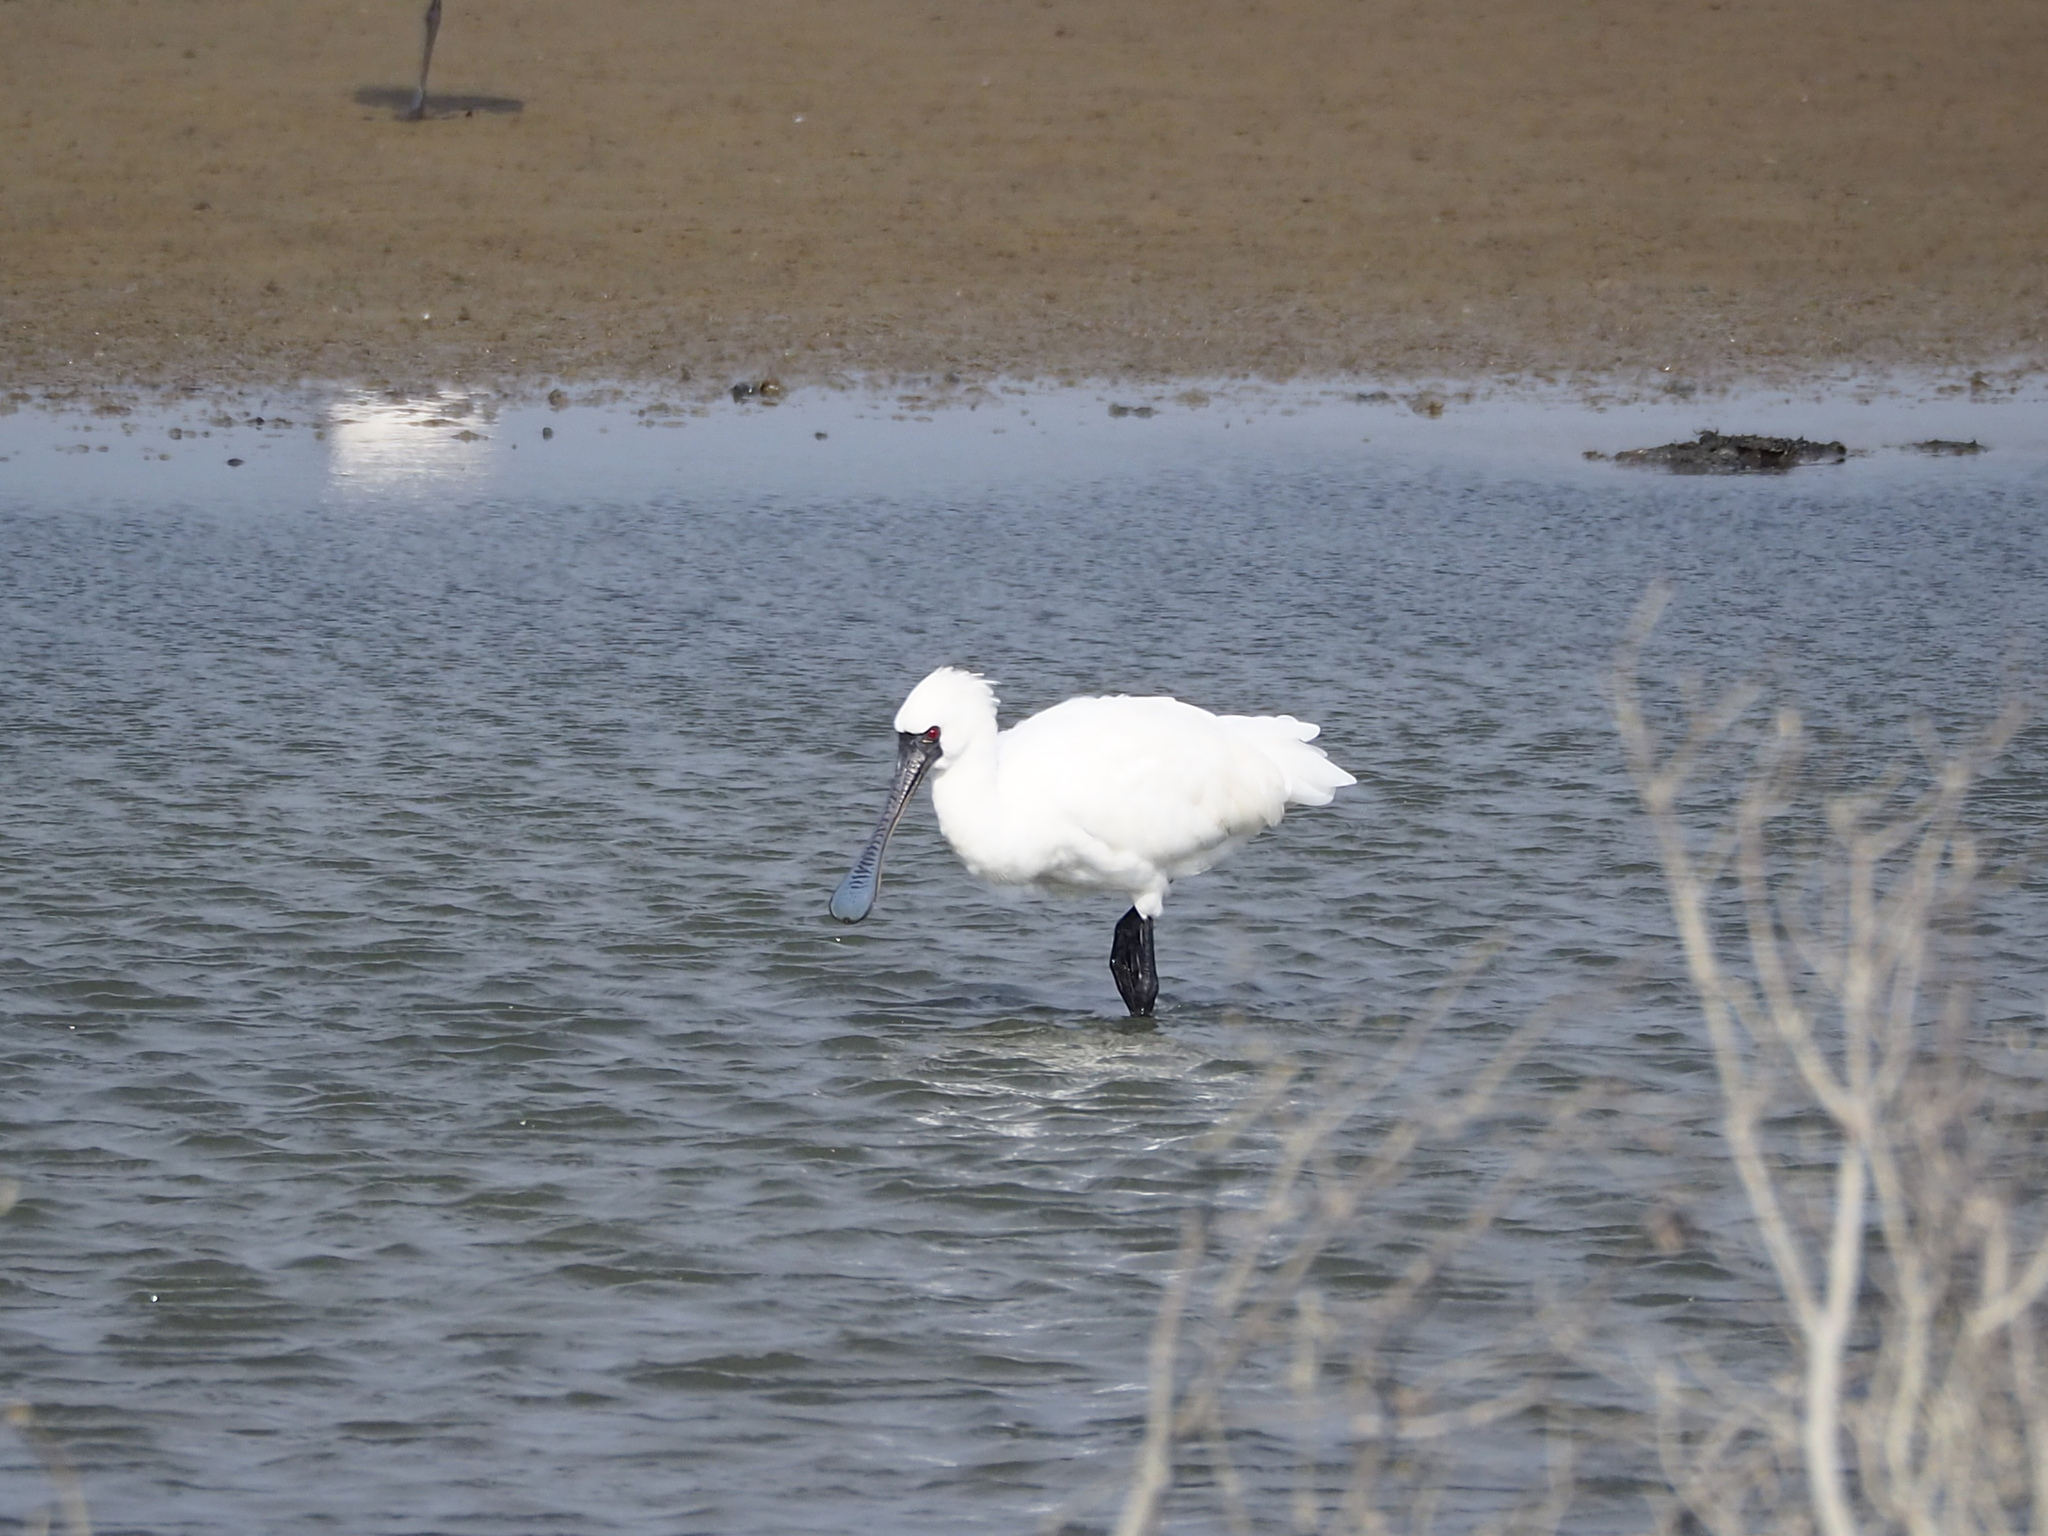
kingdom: Animalia
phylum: Chordata
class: Aves
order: Pelecaniformes
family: Threskiornithidae
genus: Platalea
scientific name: Platalea minor
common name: Black-faced spoonbill
